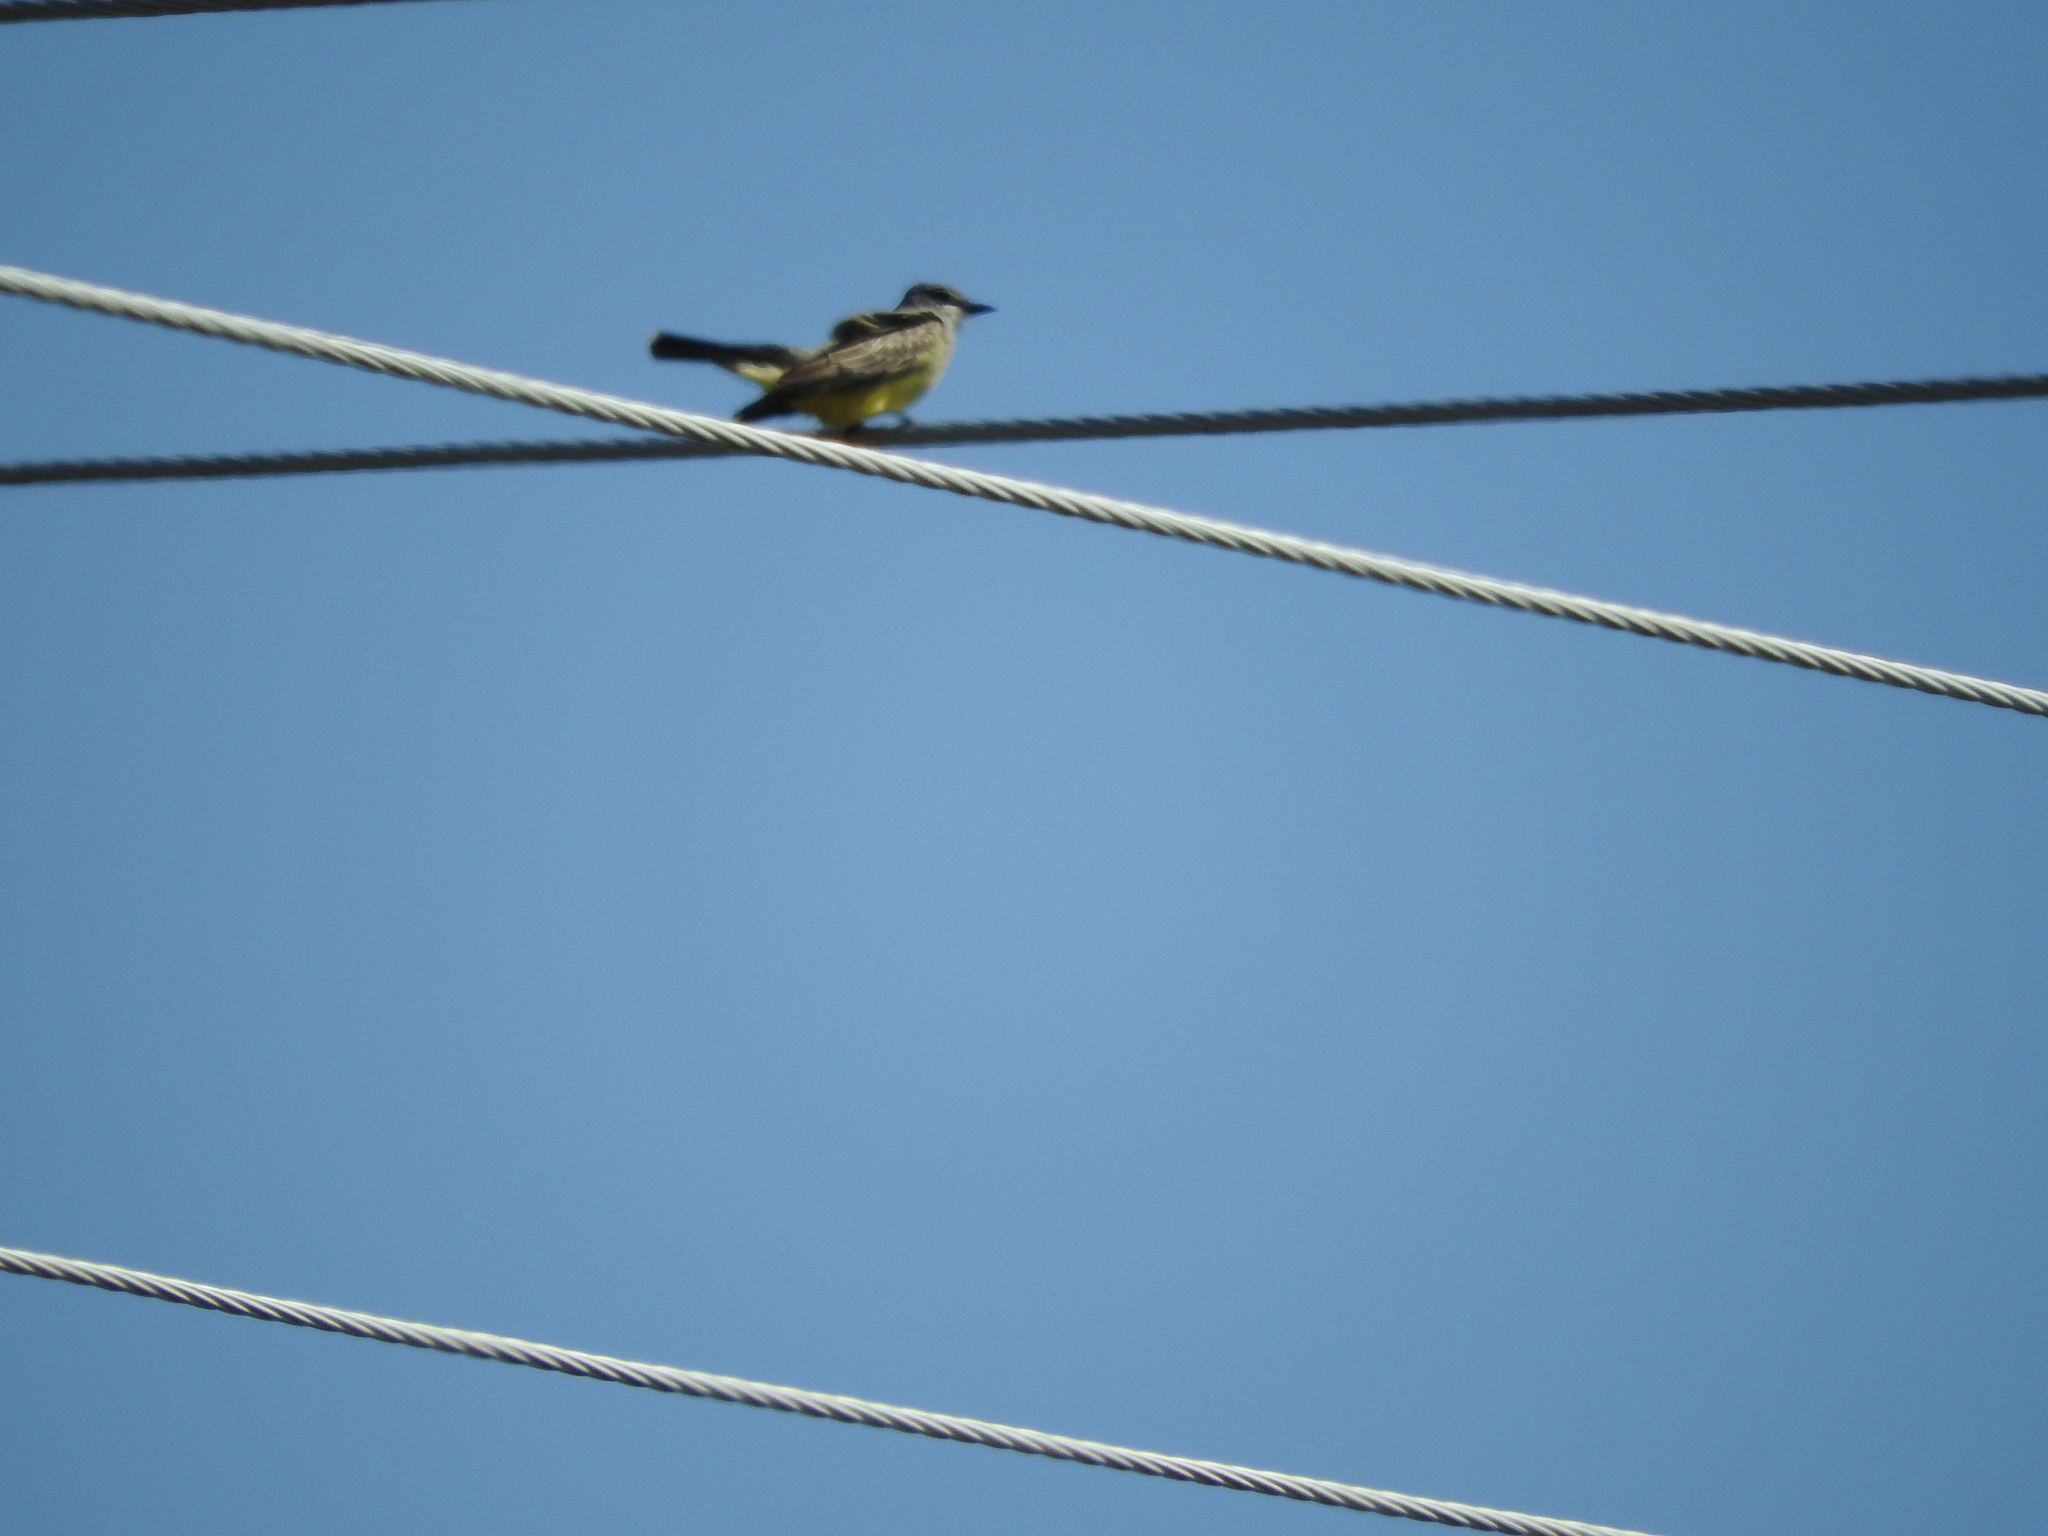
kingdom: Animalia
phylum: Chordata
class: Aves
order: Passeriformes
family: Tyrannidae
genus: Tyrannus
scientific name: Tyrannus vociferans
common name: Cassin's kingbird
